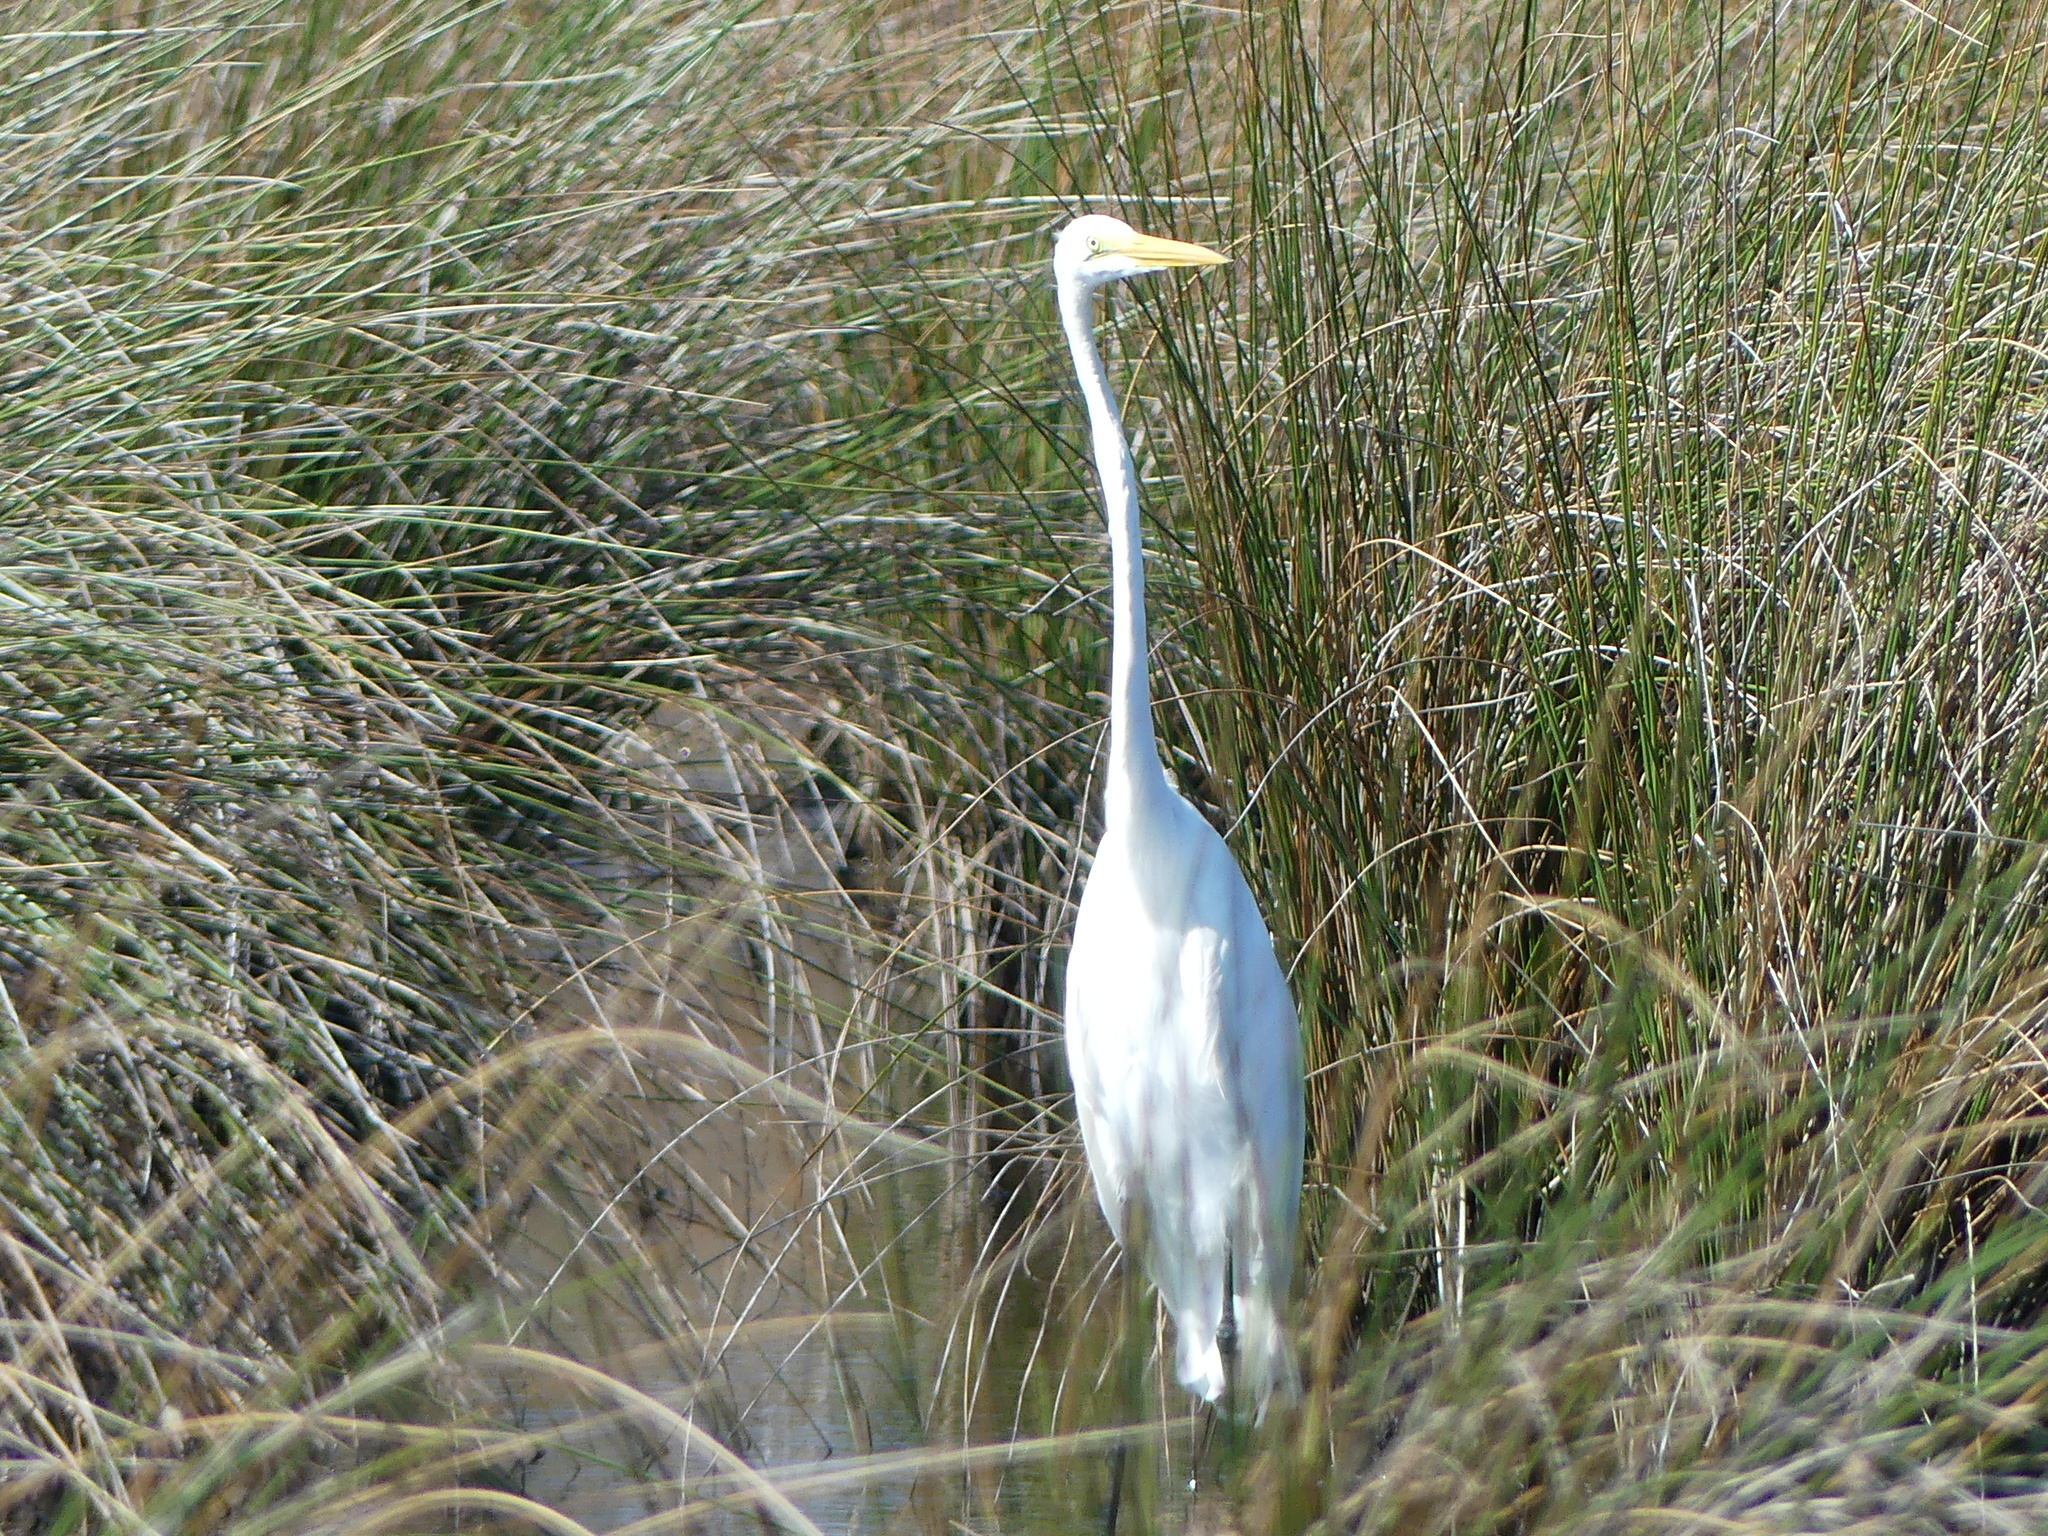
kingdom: Animalia
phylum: Chordata
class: Aves
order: Pelecaniformes
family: Ardeidae
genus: Ardea
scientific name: Ardea alba
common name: Great egret
